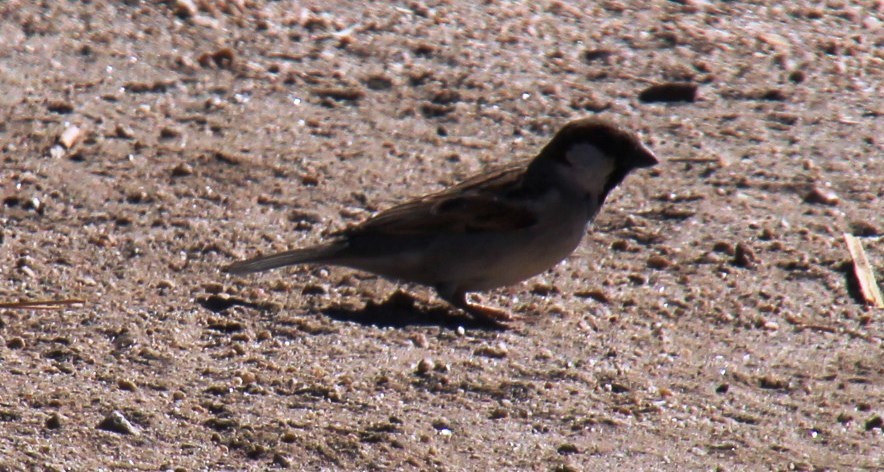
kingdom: Animalia
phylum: Chordata
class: Aves
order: Passeriformes
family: Passeridae
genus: Passer
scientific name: Passer domesticus
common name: House sparrow
